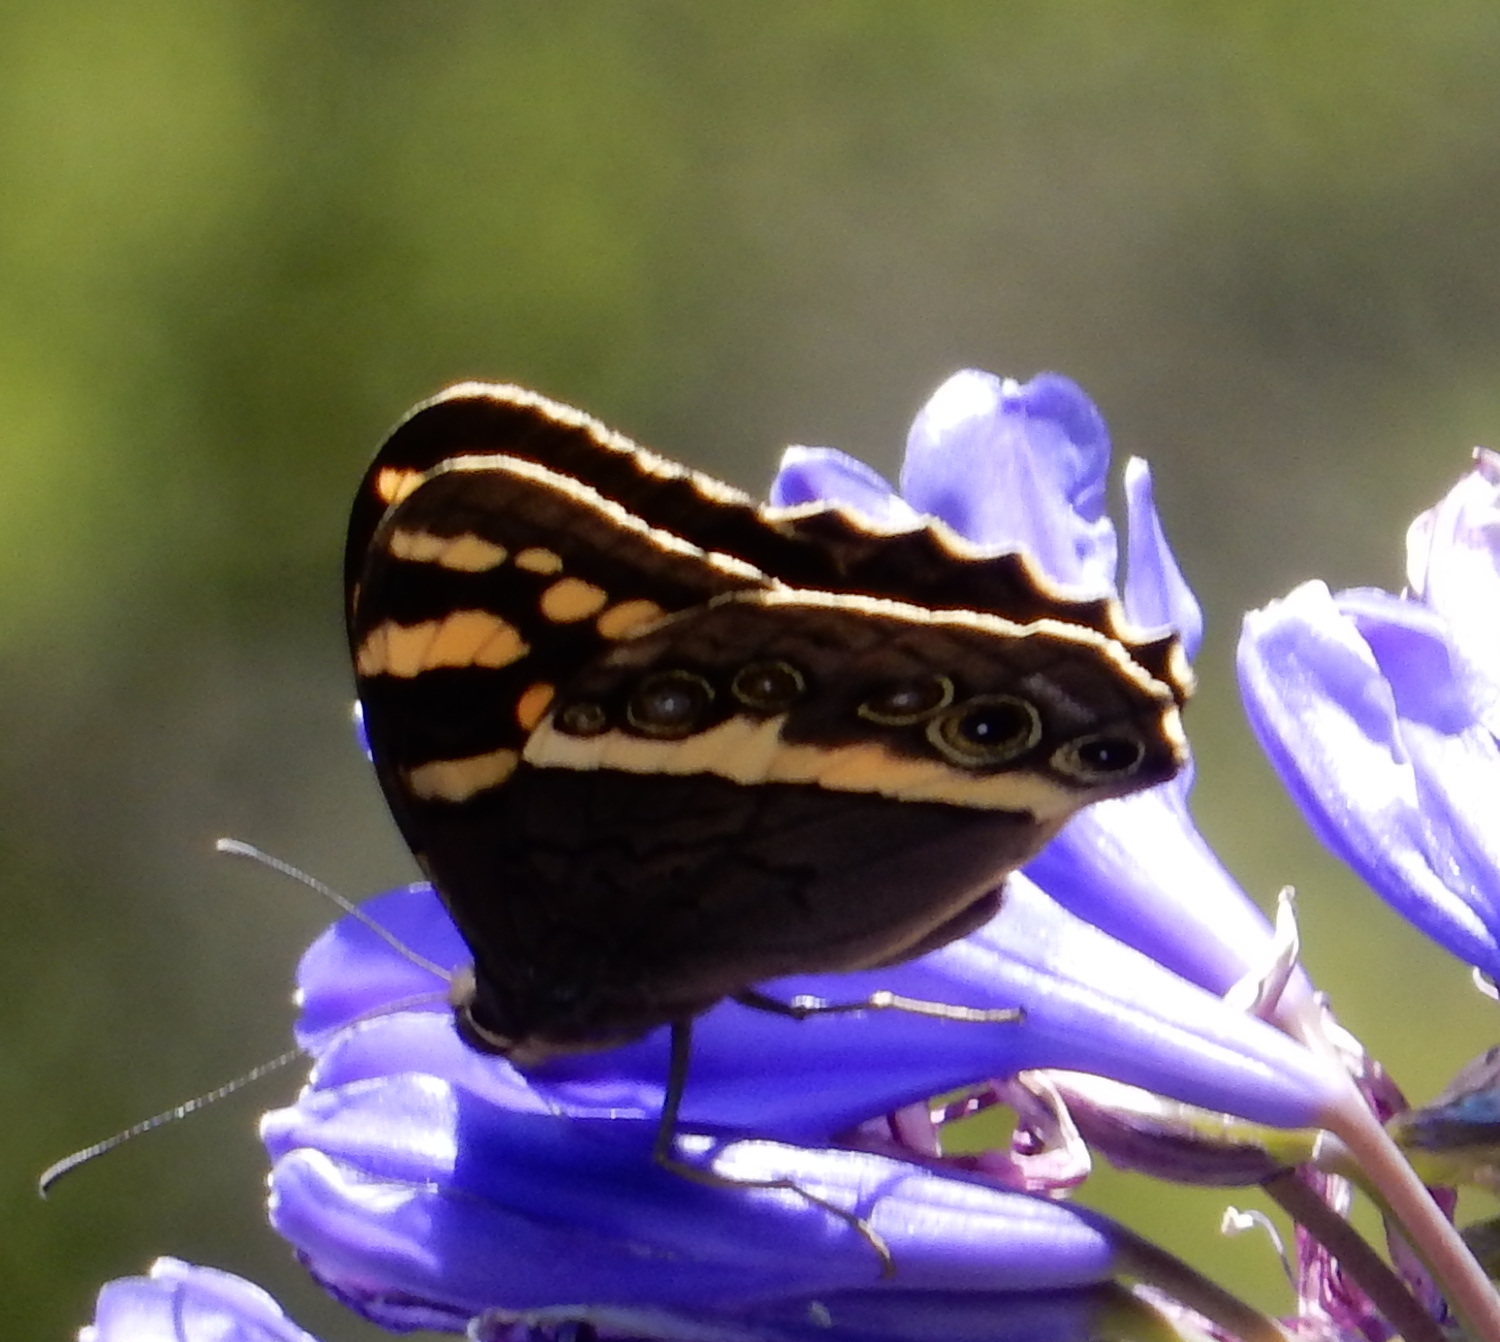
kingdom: Animalia
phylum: Arthropoda
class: Insecta
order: Lepidoptera
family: Nymphalidae
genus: Meneris
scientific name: Meneris Aeropetes tulbaghia
